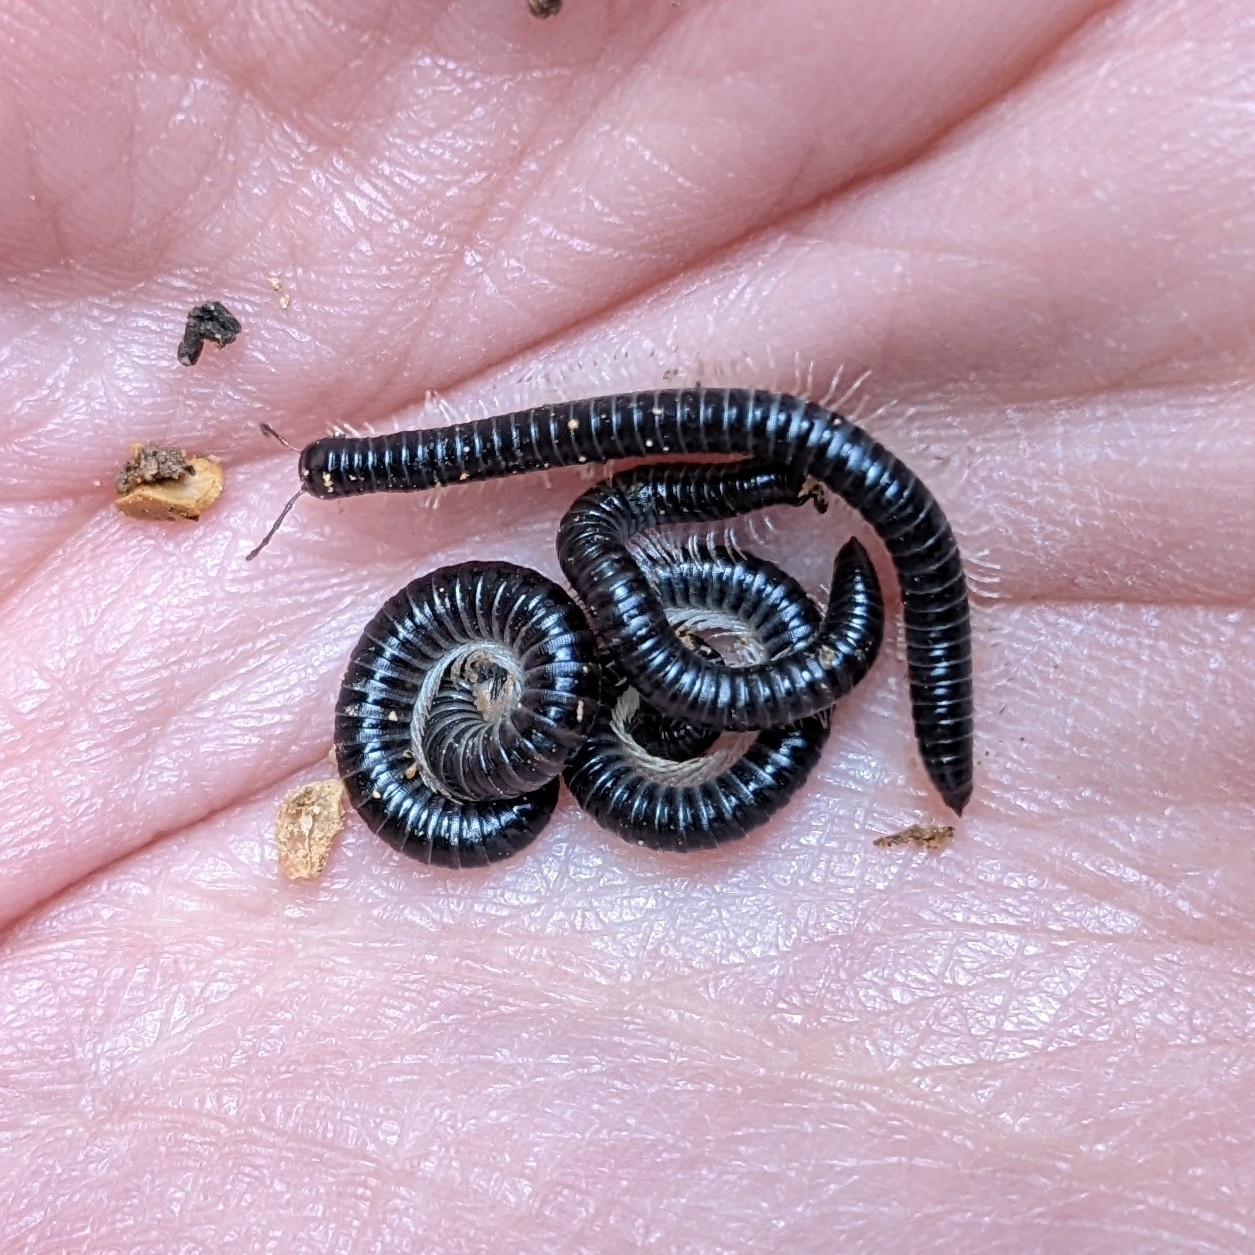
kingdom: Animalia
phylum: Arthropoda
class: Diplopoda
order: Julida
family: Julidae
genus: Tachypodoiulus
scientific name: Tachypodoiulus niger
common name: White-legged snake millipede
